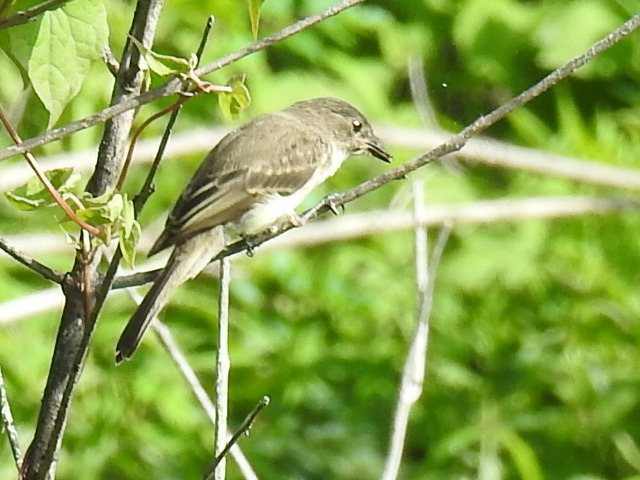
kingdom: Animalia
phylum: Chordata
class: Aves
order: Passeriformes
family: Tyrannidae
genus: Sayornis
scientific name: Sayornis phoebe
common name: Eastern phoebe
